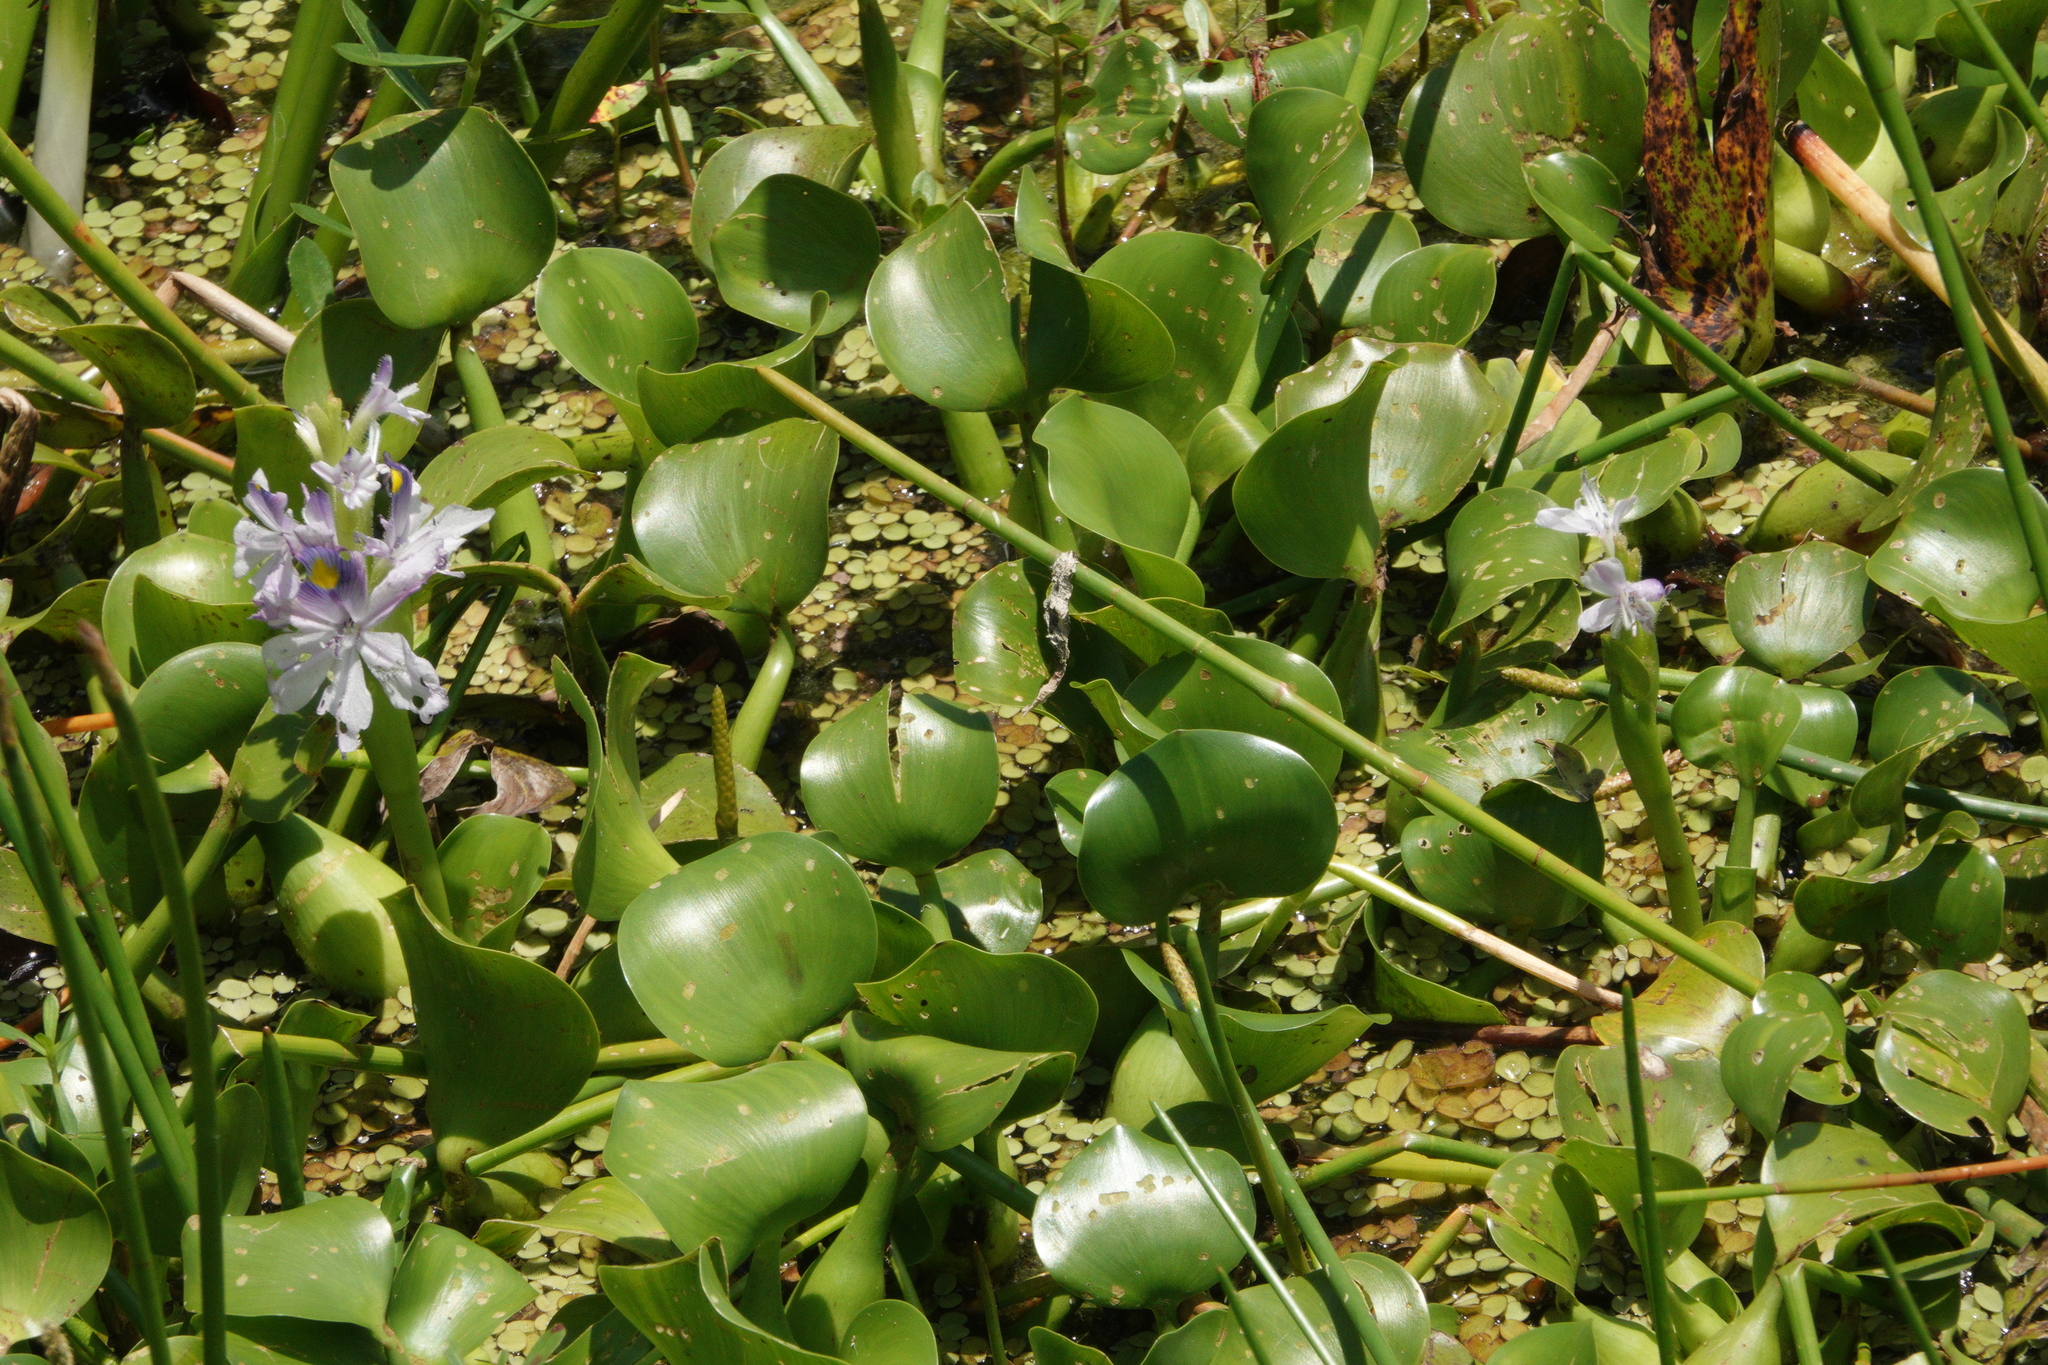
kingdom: Plantae
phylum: Tracheophyta
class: Liliopsida
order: Commelinales
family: Pontederiaceae
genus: Pontederia
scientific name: Pontederia crassipes
